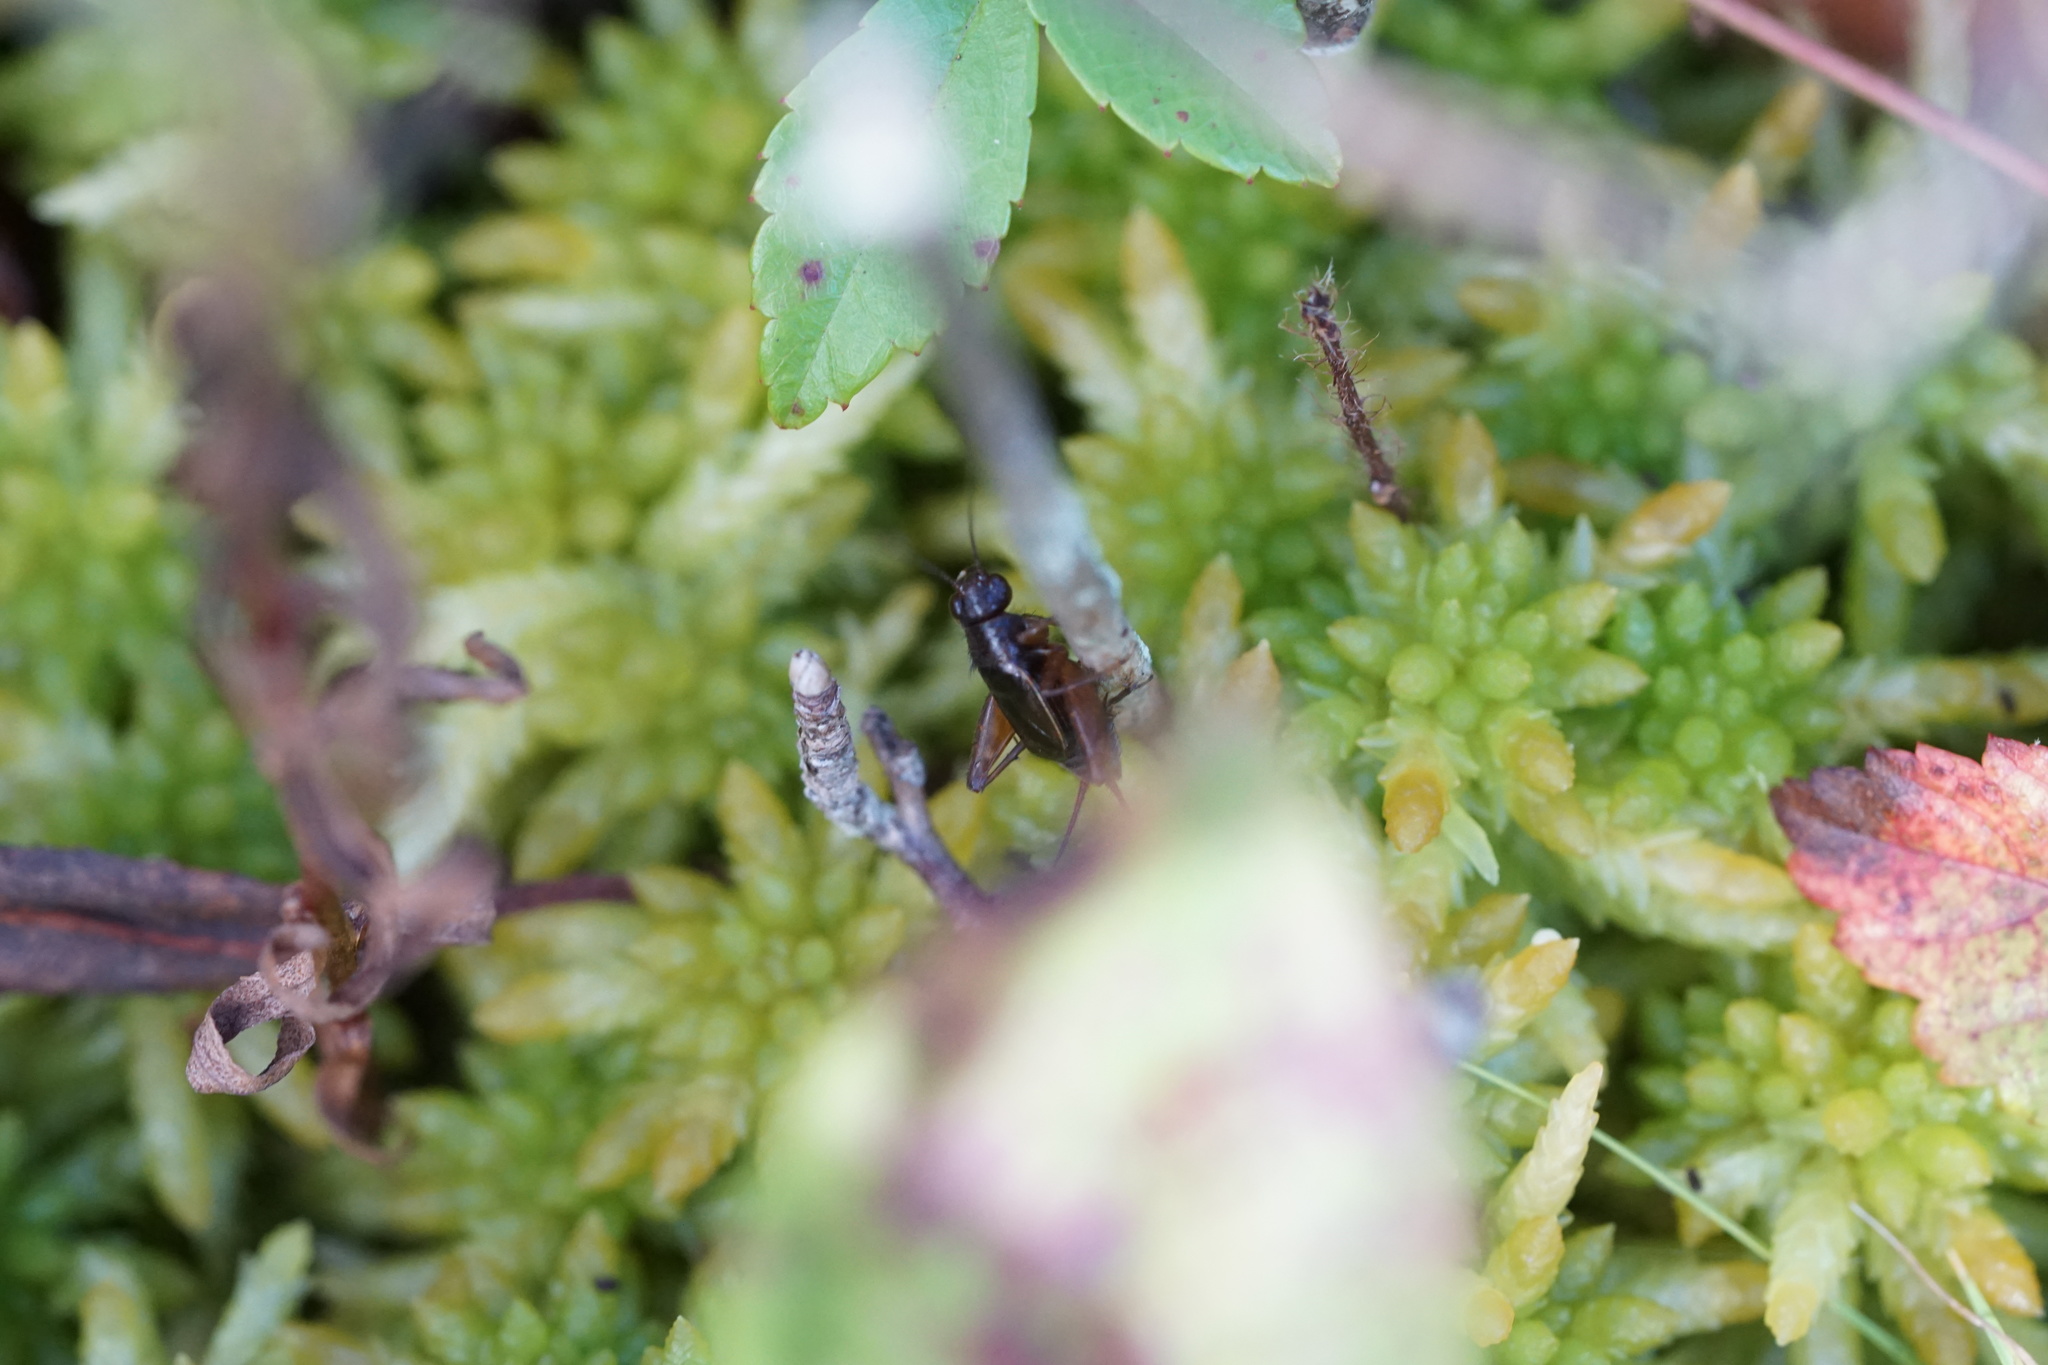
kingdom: Animalia
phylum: Arthropoda
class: Insecta
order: Orthoptera
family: Trigonidiidae
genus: Neonemobius
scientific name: Neonemobius palustris
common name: Marsh ground cricket
